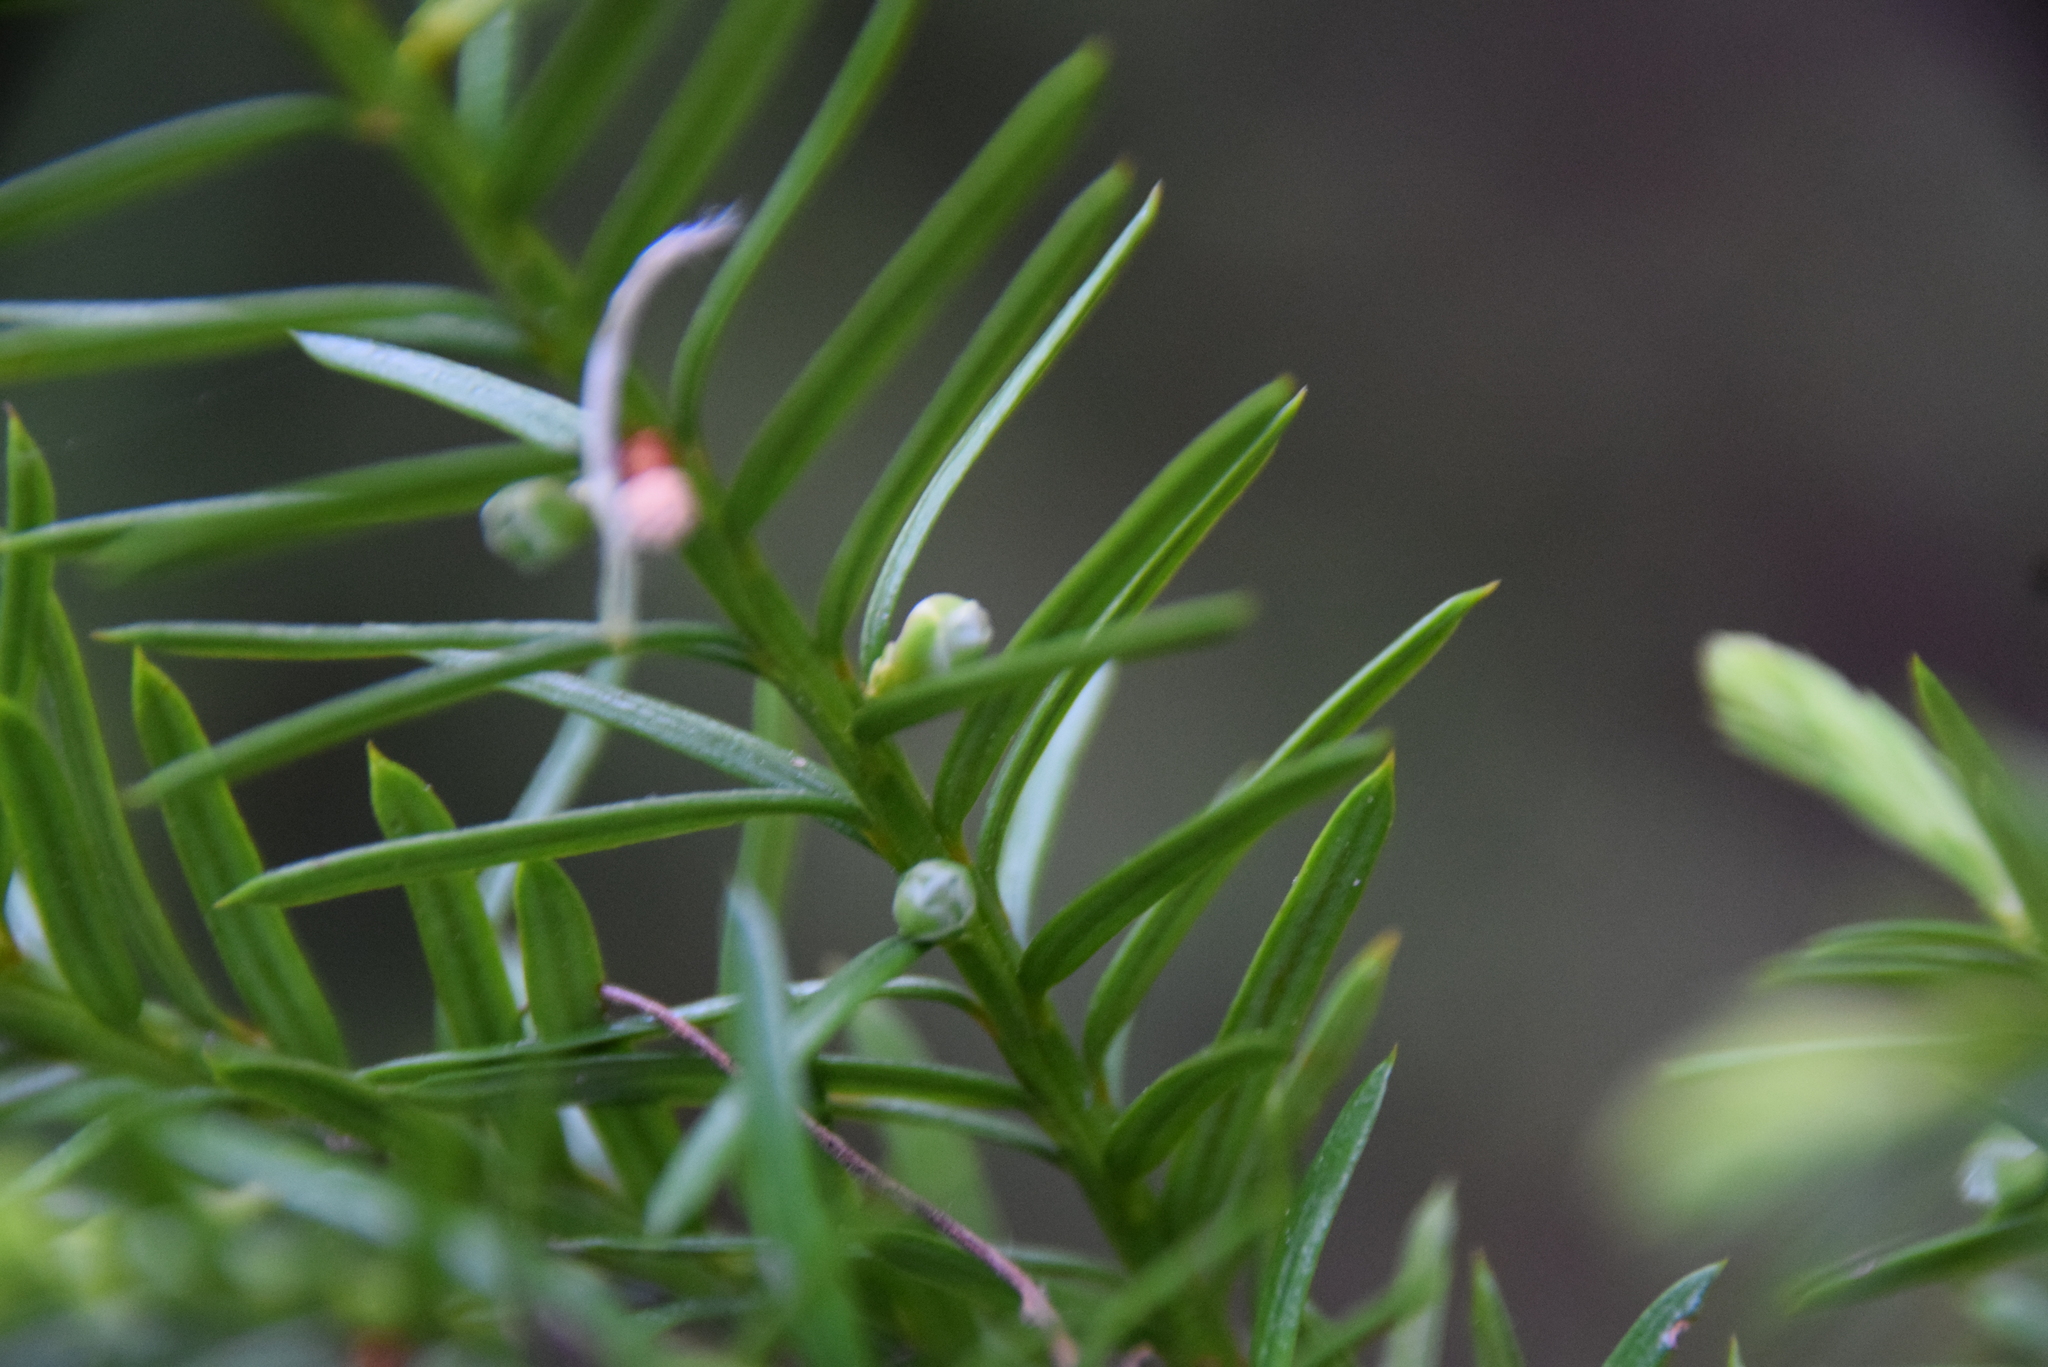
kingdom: Plantae
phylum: Tracheophyta
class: Pinopsida
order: Pinales
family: Taxaceae
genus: Taxus
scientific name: Taxus canadensis
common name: American yew
